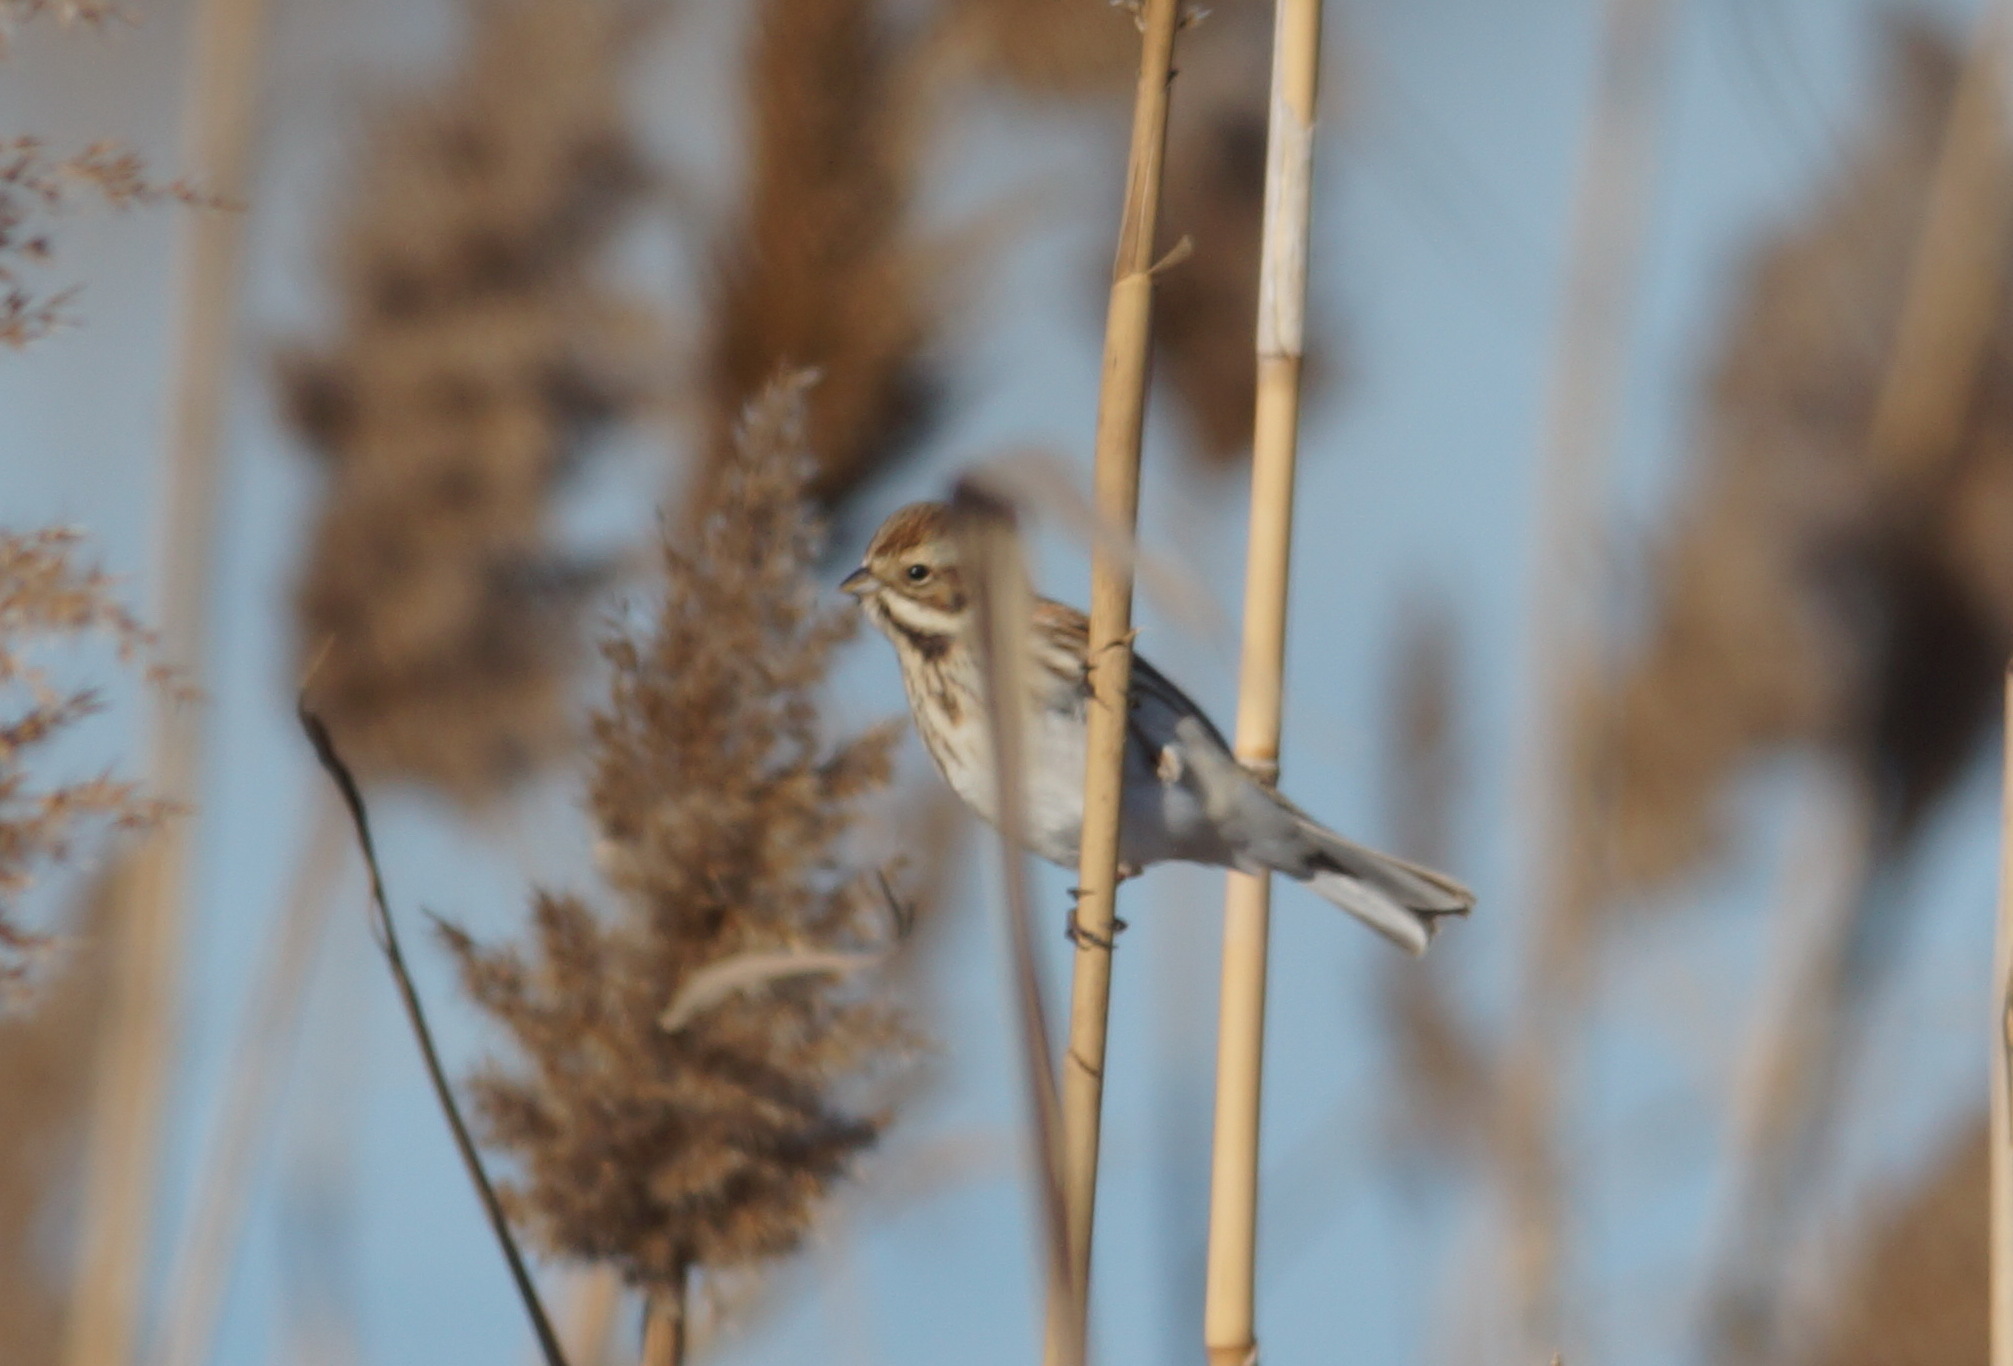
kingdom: Animalia
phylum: Chordata
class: Aves
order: Passeriformes
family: Emberizidae
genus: Emberiza
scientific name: Emberiza schoeniclus
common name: Reed bunting
